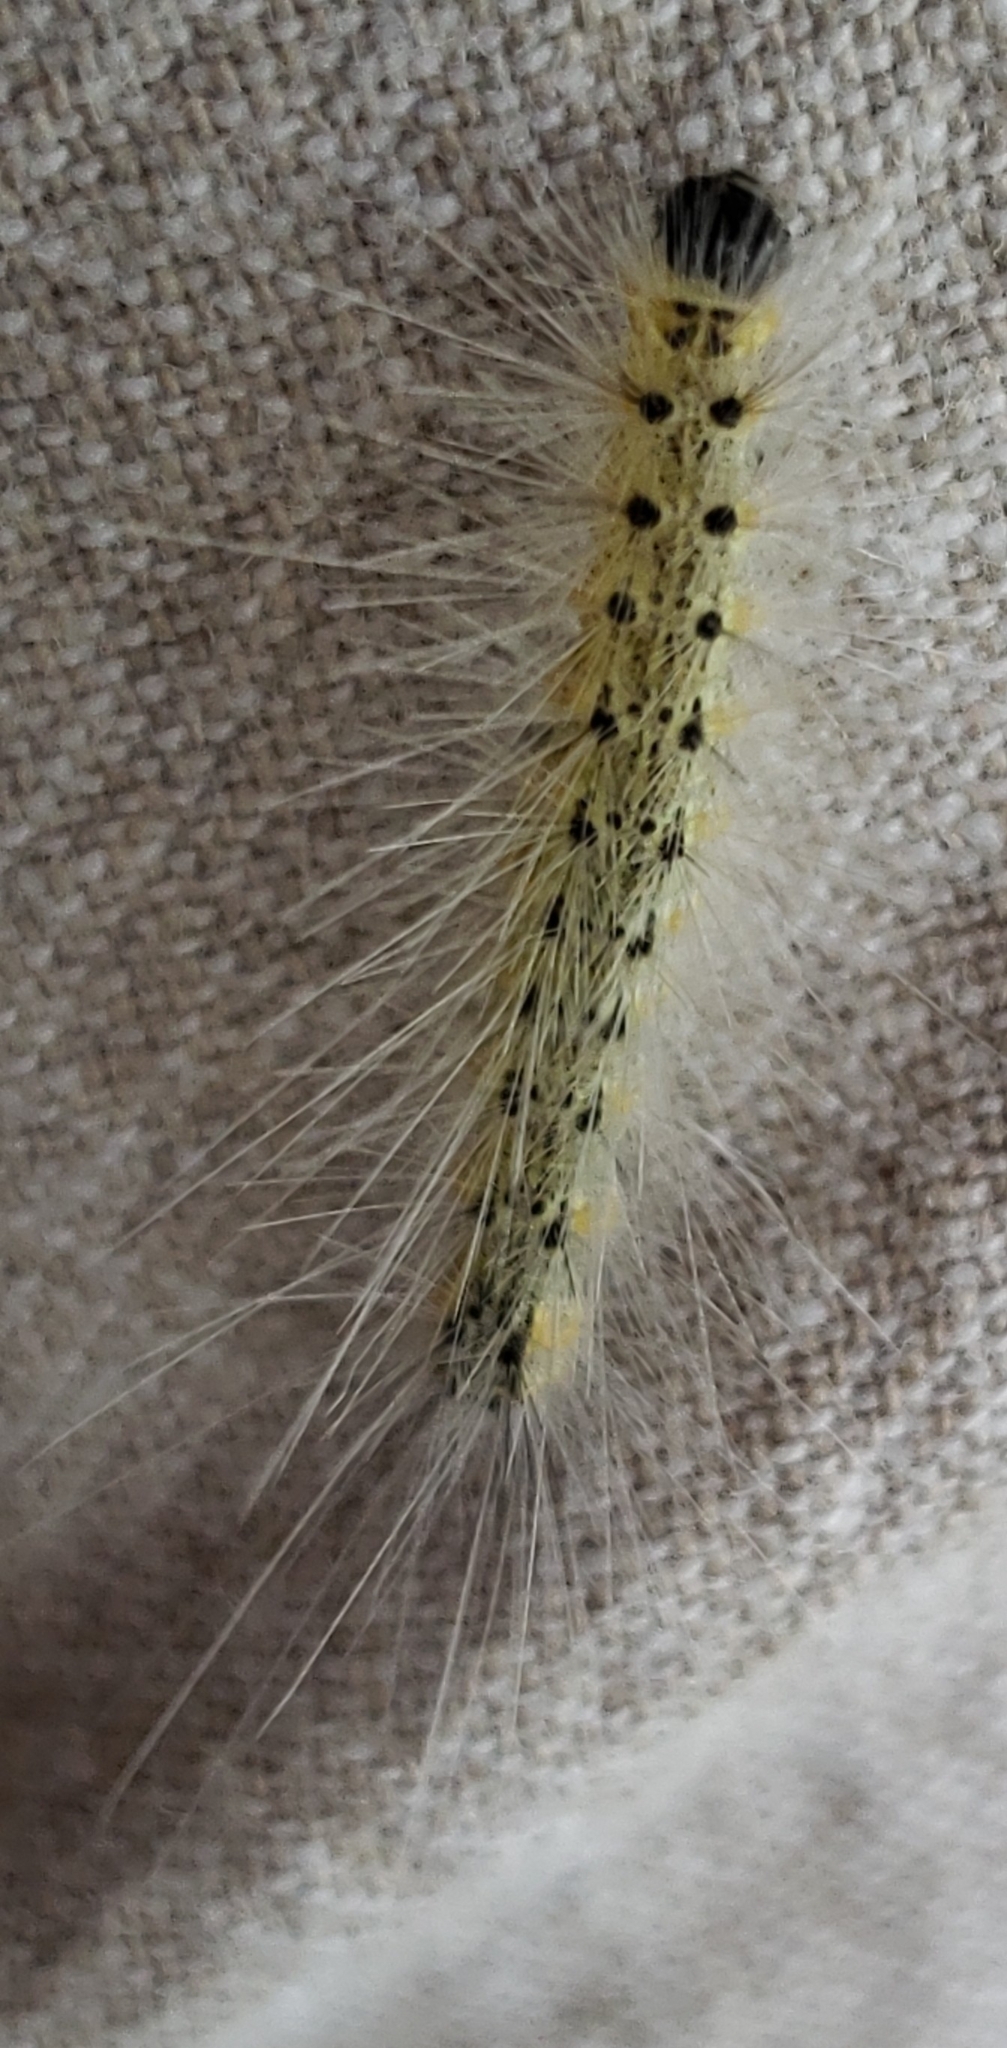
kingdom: Animalia
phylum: Arthropoda
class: Insecta
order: Lepidoptera
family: Erebidae
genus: Hyphantria
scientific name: Hyphantria cunea
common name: American white moth
